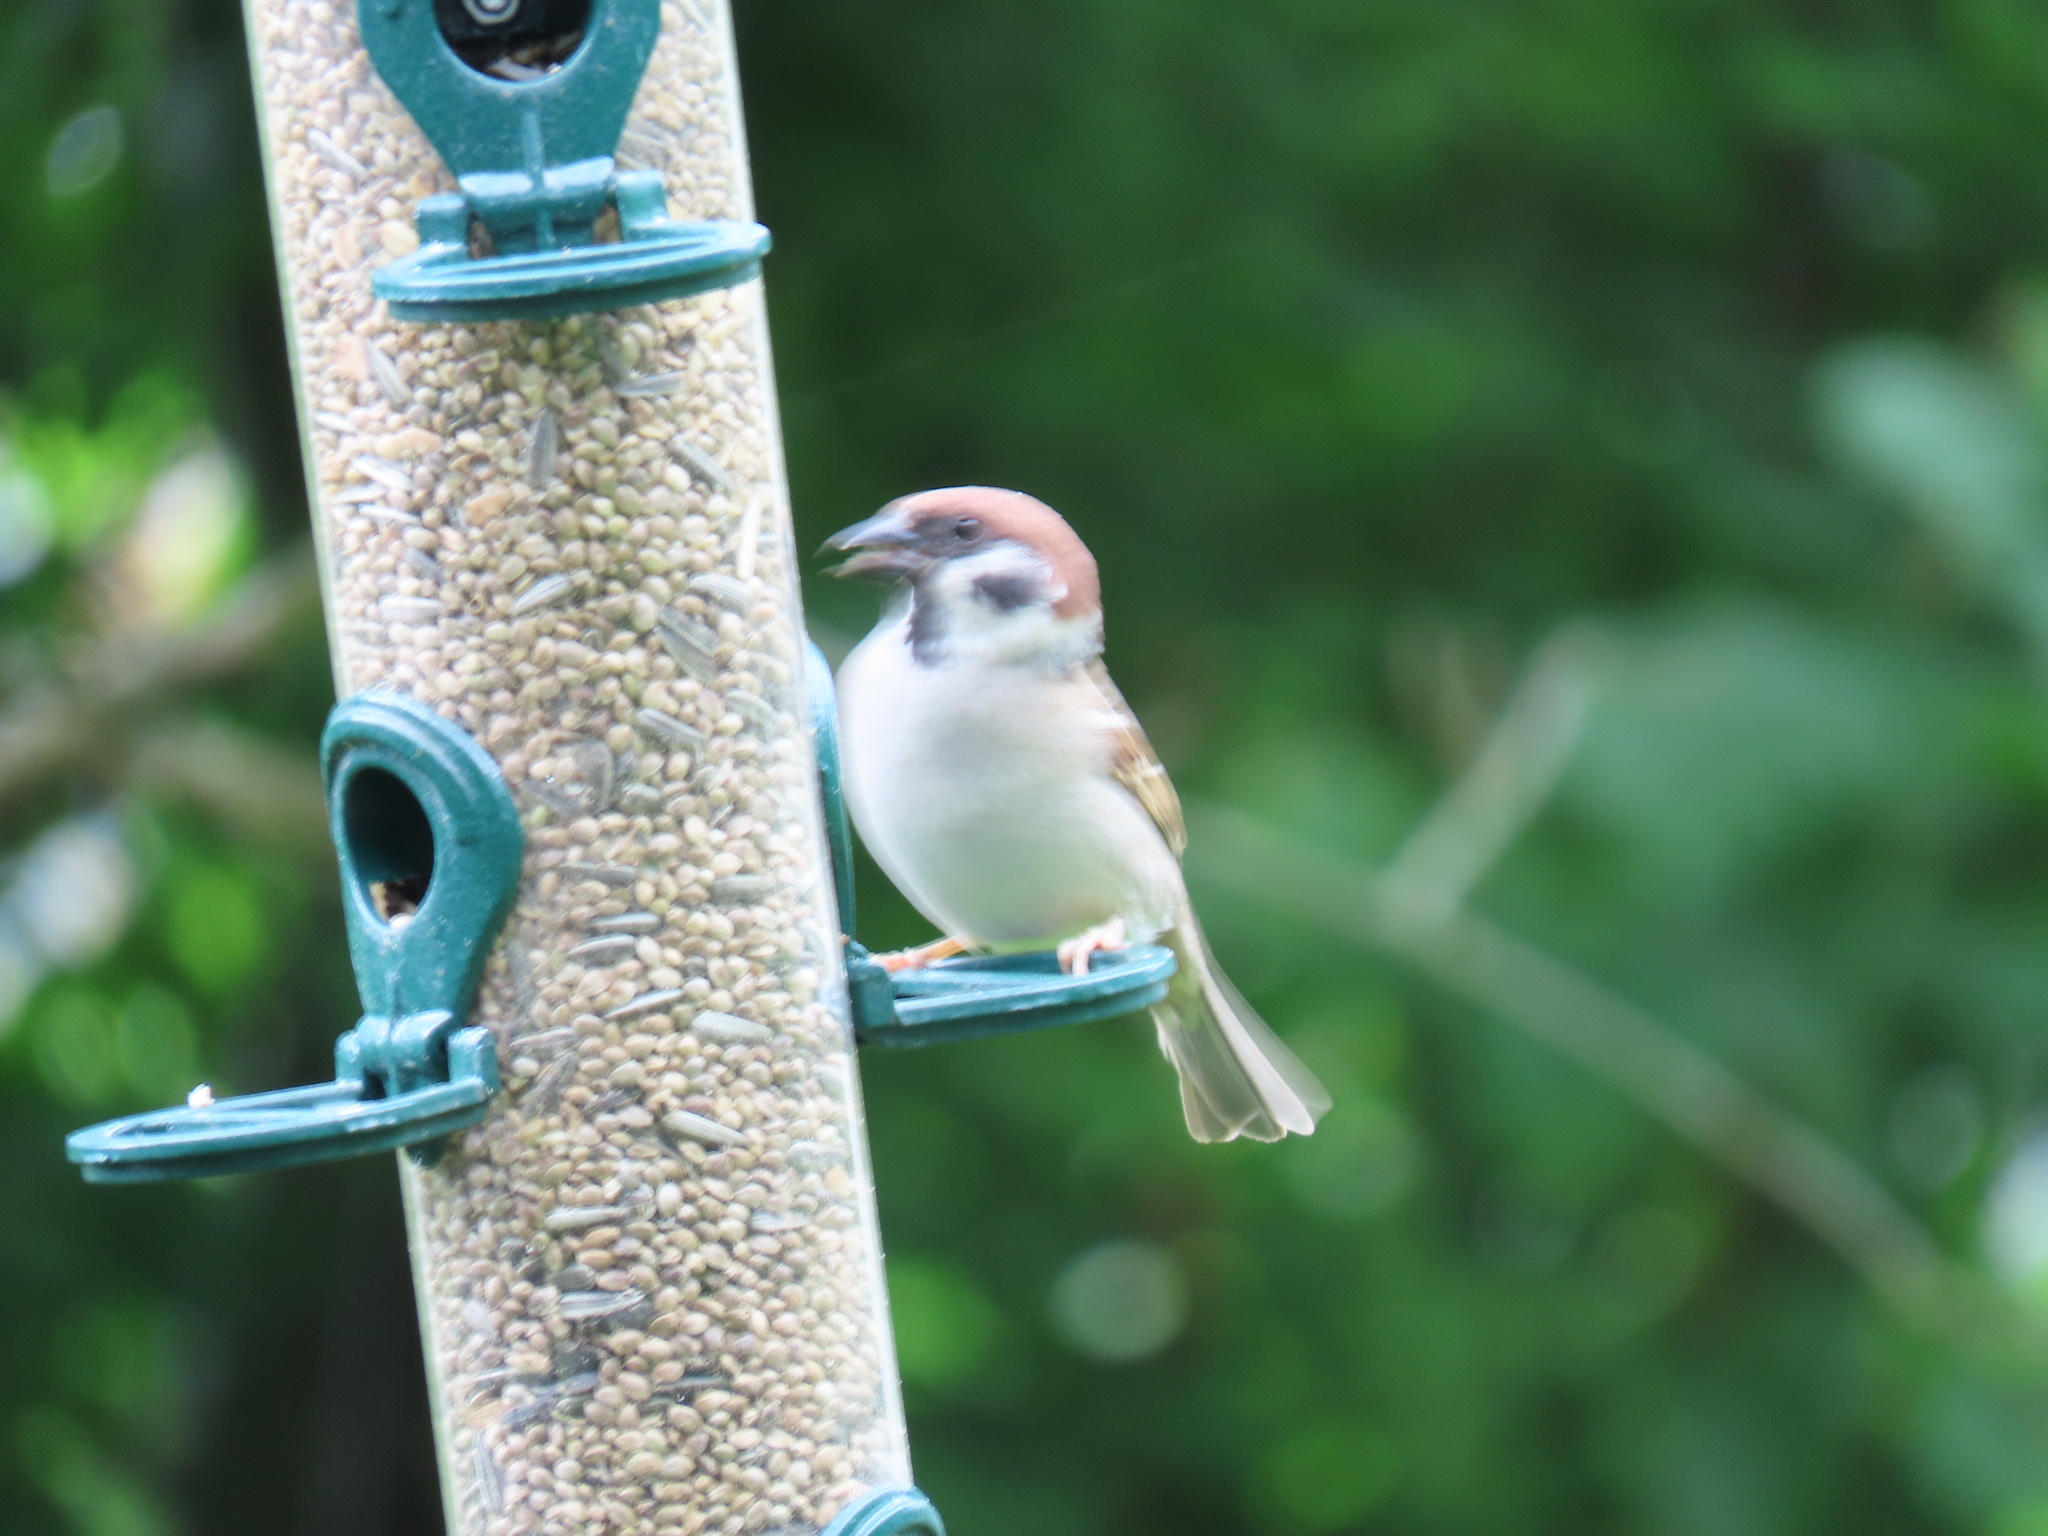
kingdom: Animalia
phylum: Chordata
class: Aves
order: Passeriformes
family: Passeridae
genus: Passer
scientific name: Passer montanus
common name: Eurasian tree sparrow
